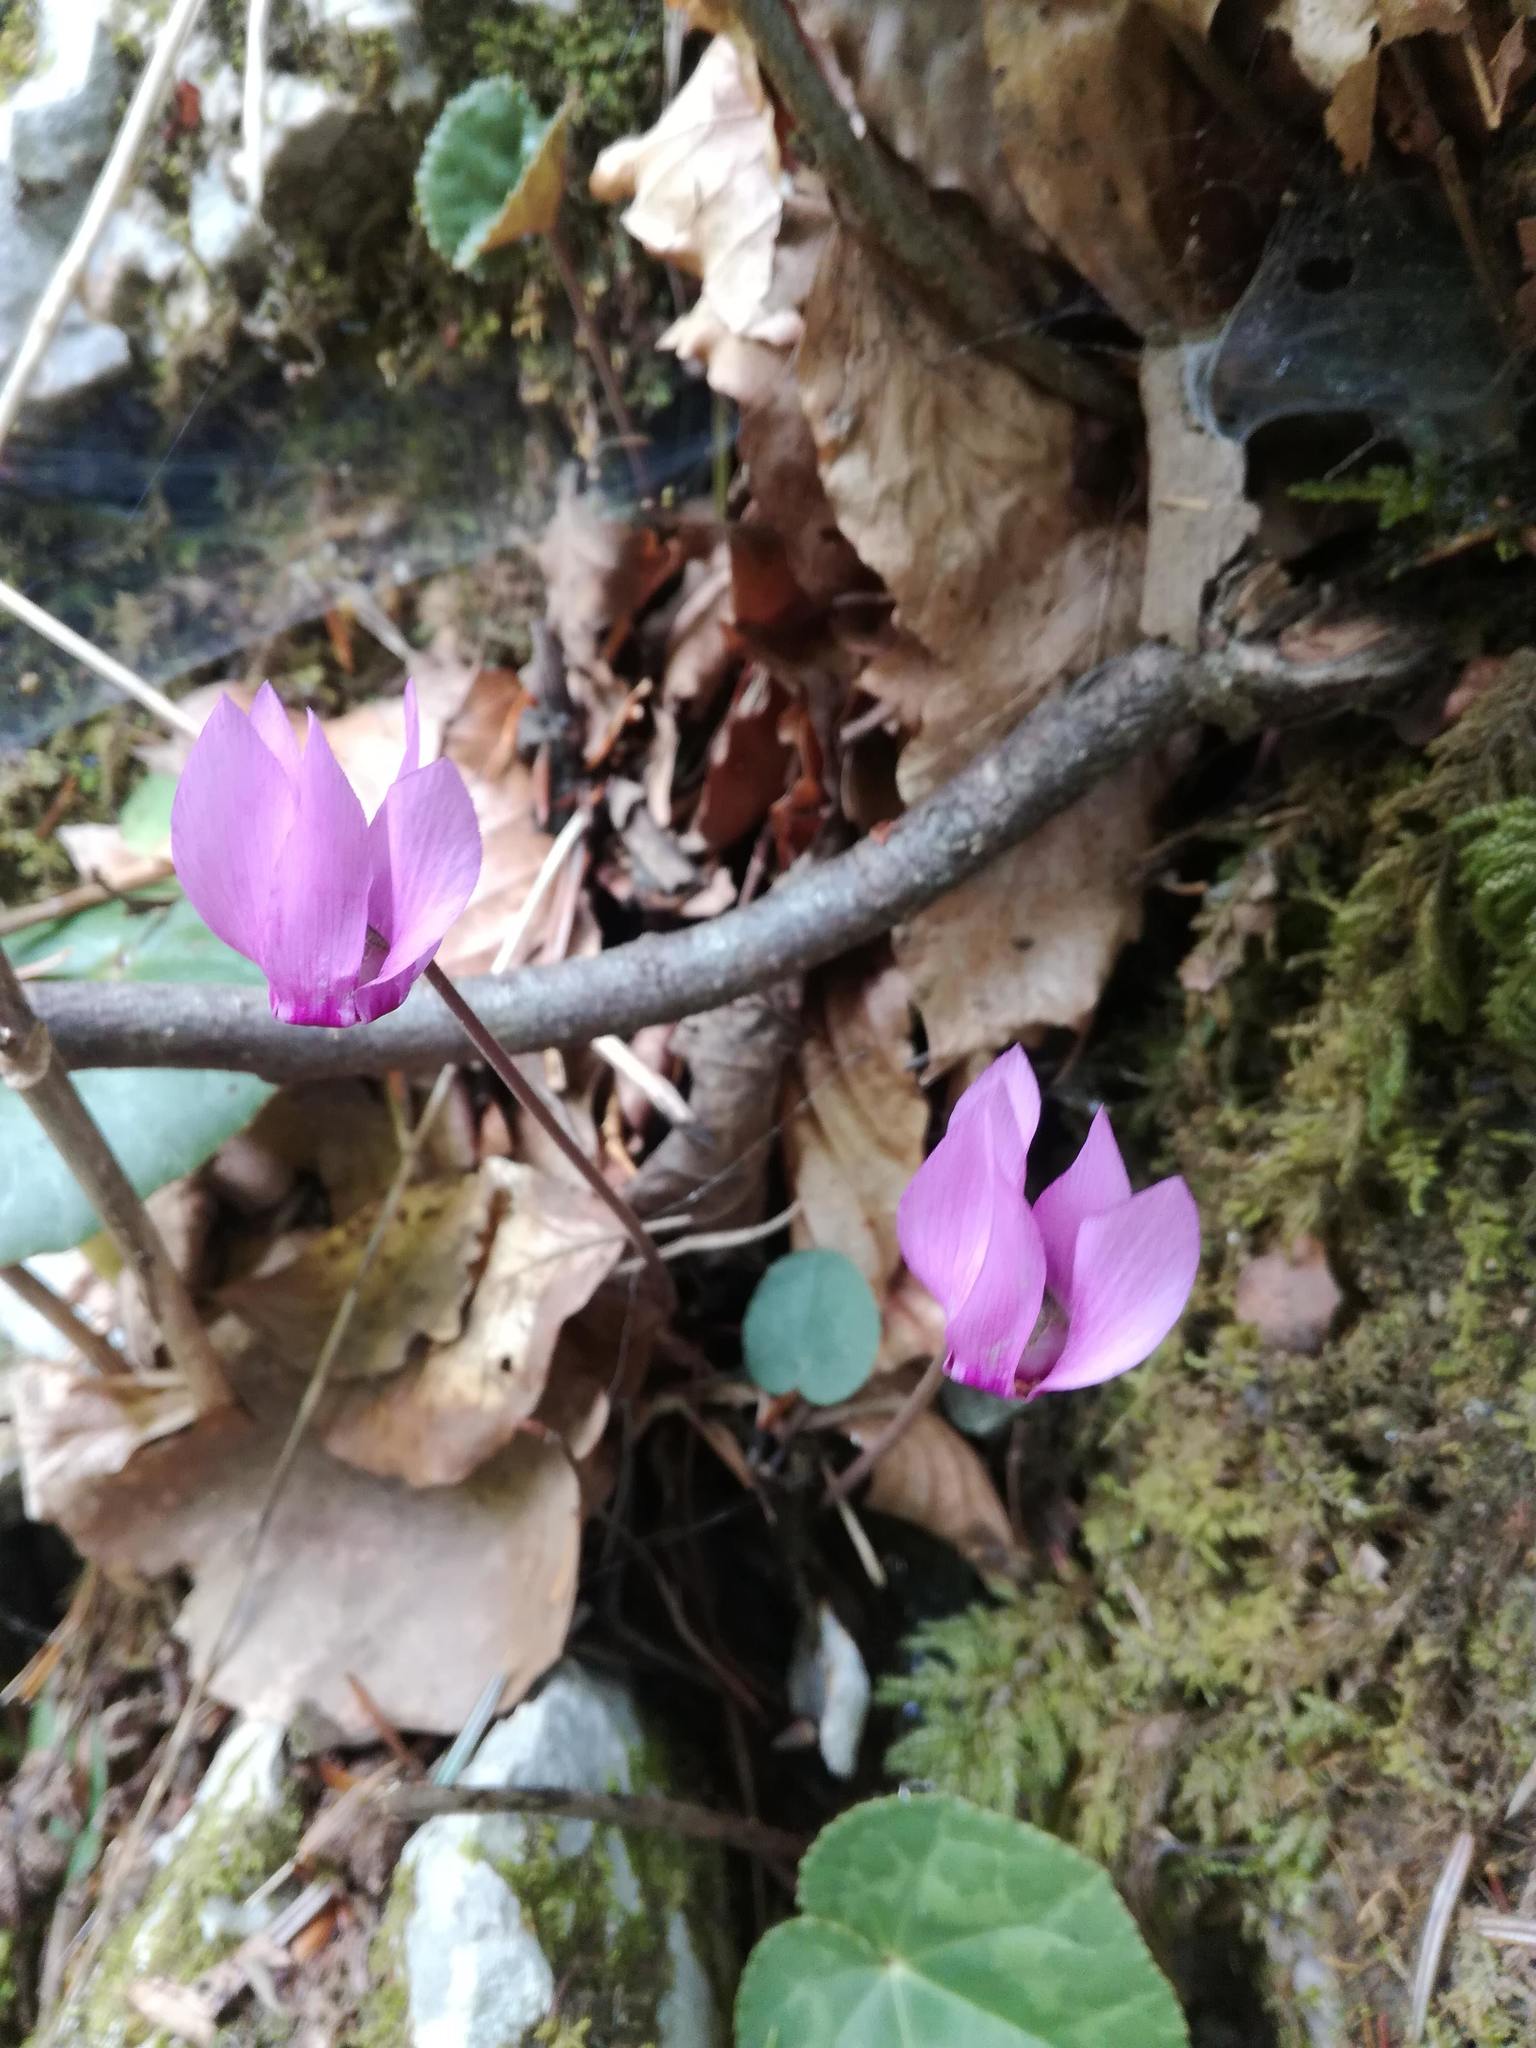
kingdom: Plantae
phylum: Tracheophyta
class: Magnoliopsida
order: Ericales
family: Primulaceae
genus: Cyclamen
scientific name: Cyclamen purpurascens
